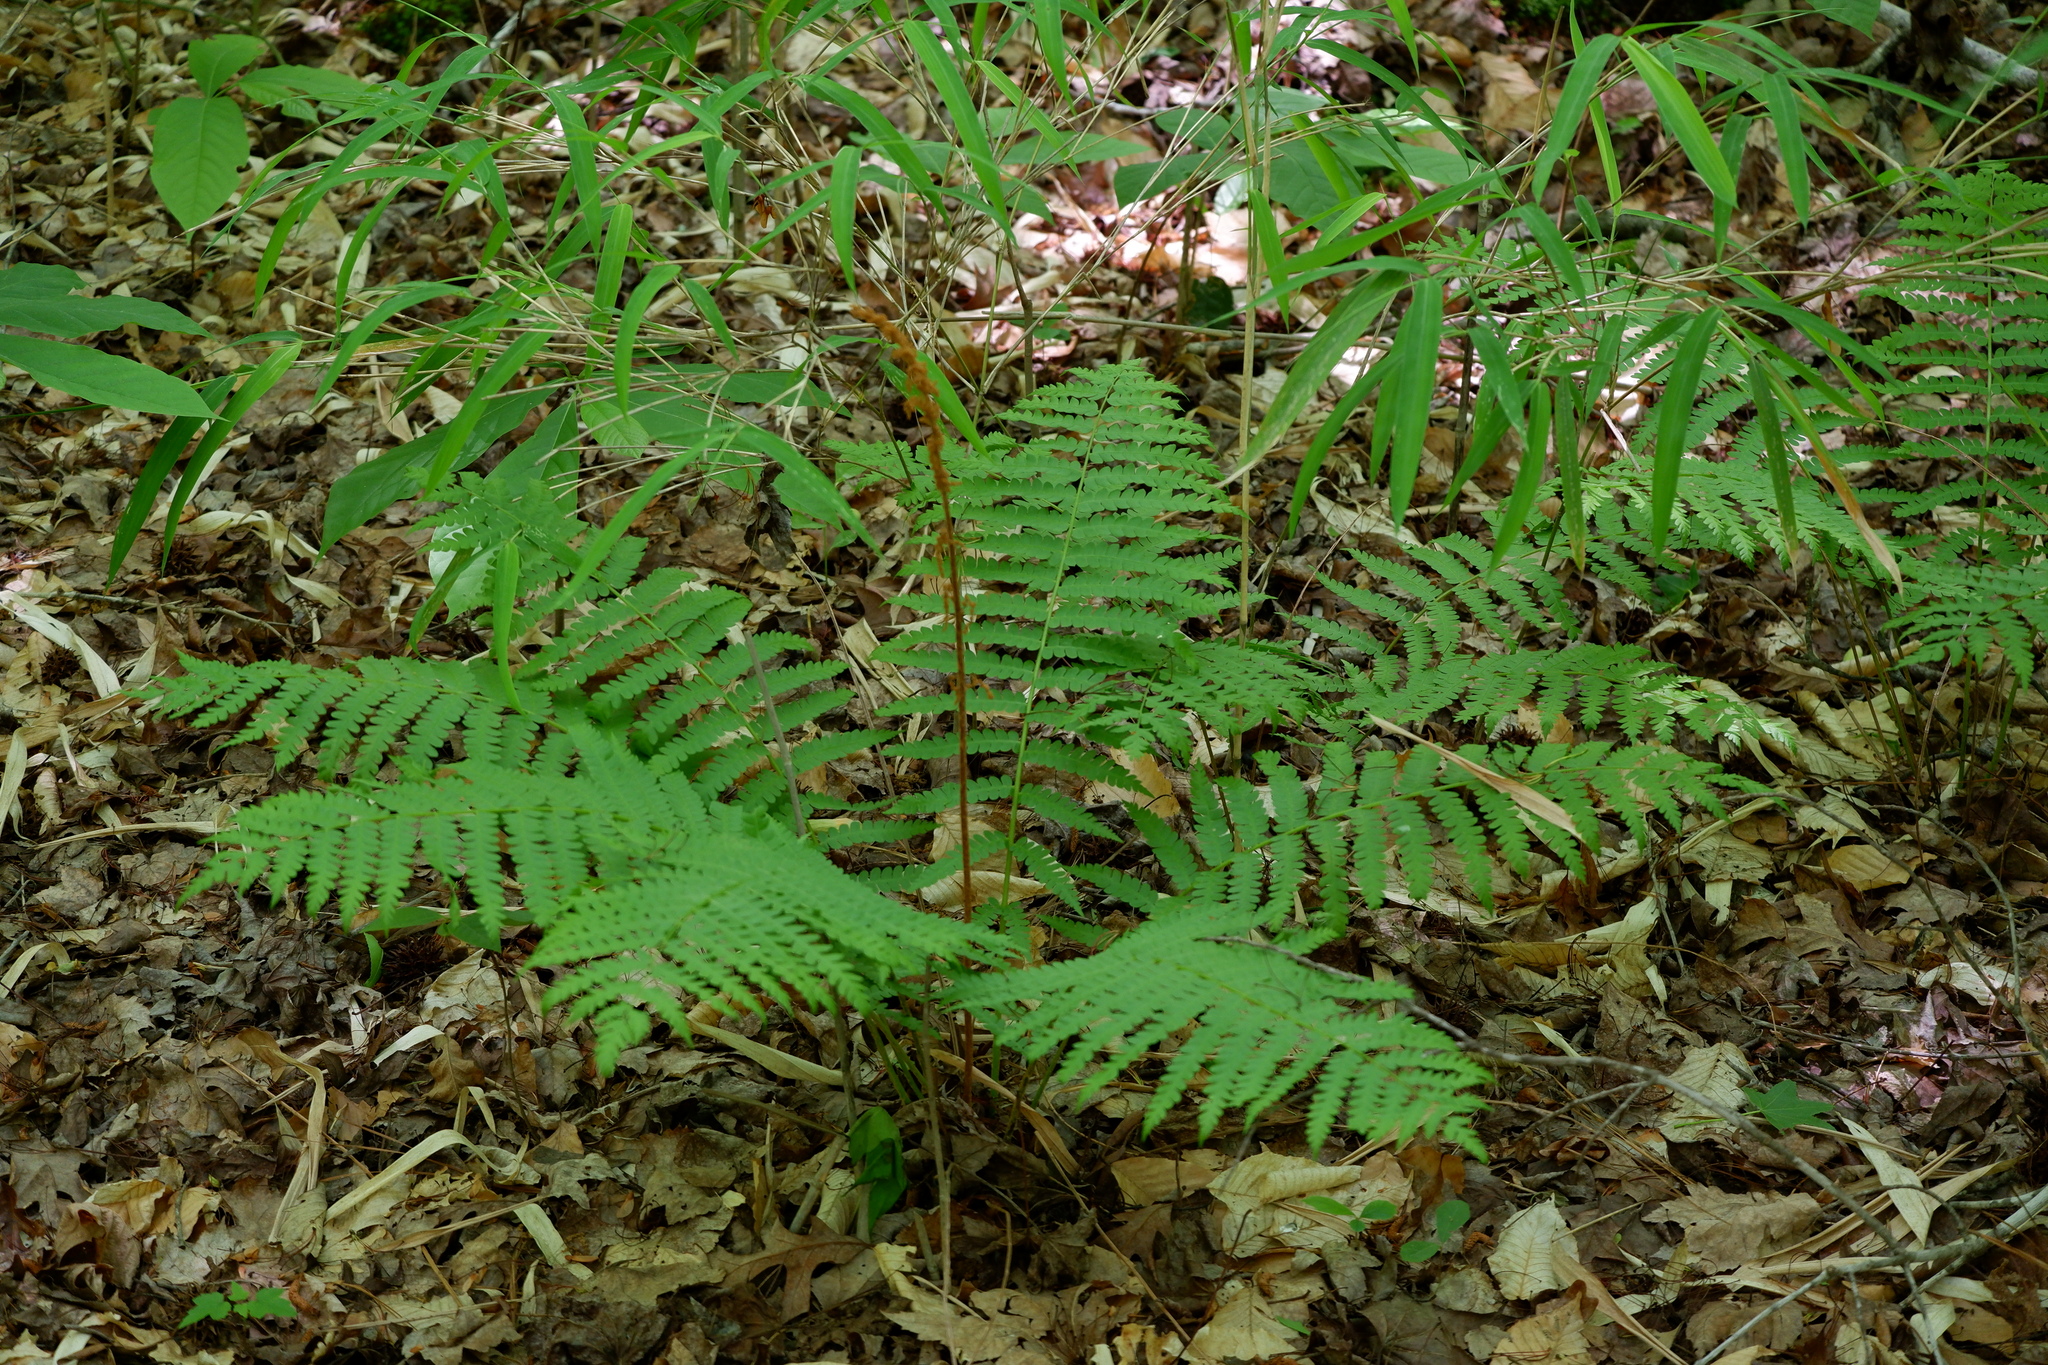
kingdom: Plantae
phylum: Tracheophyta
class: Polypodiopsida
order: Osmundales
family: Osmundaceae
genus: Osmundastrum
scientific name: Osmundastrum cinnamomeum
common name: Cinnamon fern
